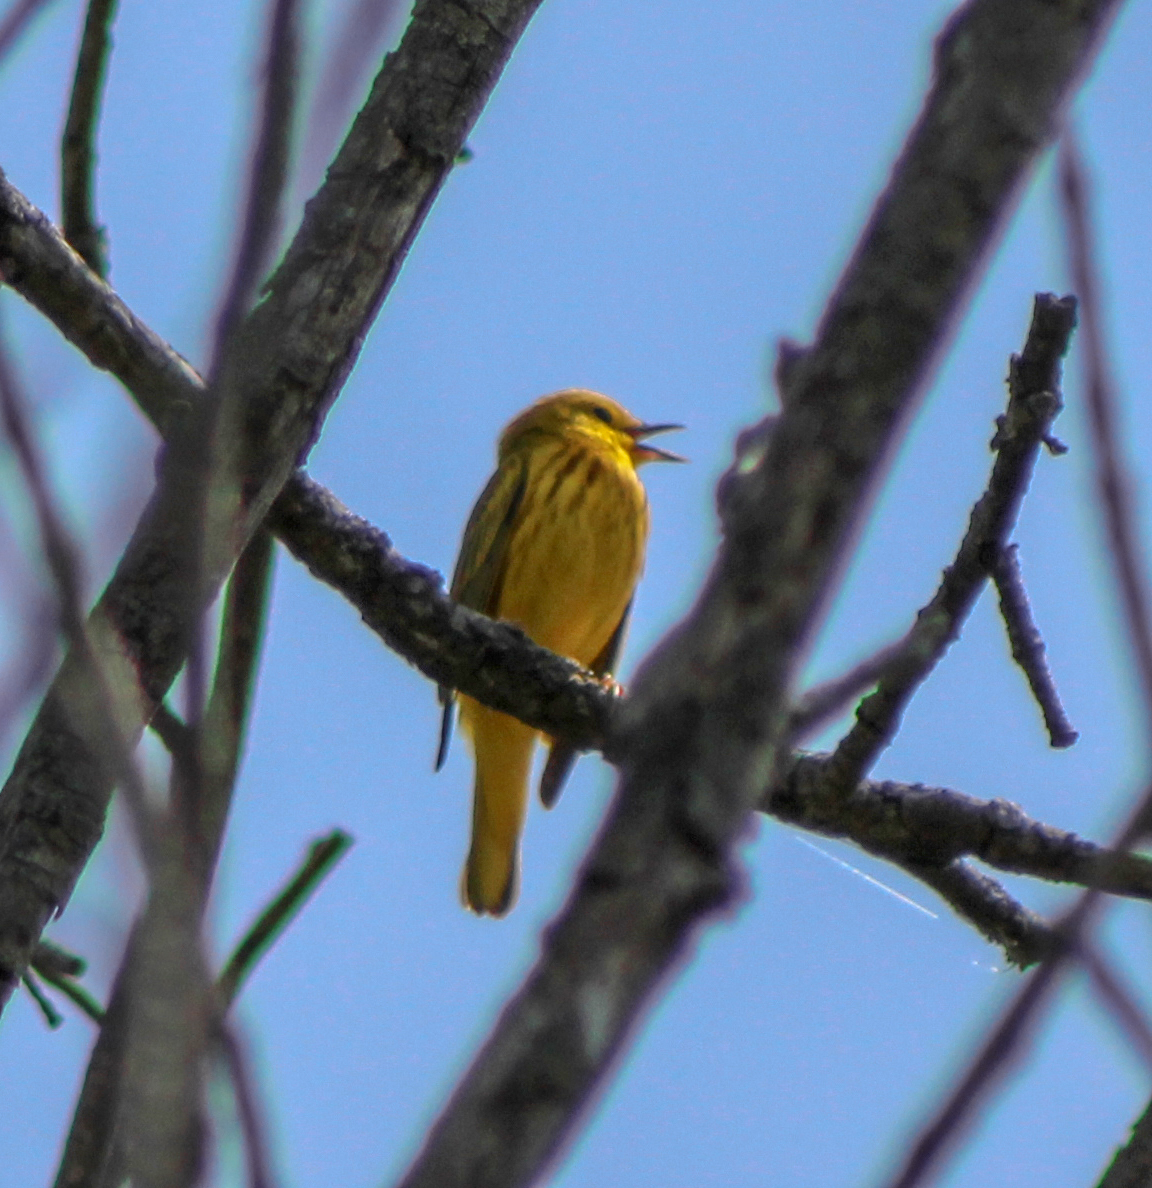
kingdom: Animalia
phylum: Chordata
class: Aves
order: Passeriformes
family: Parulidae
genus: Setophaga
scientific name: Setophaga petechia
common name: Yellow warbler
